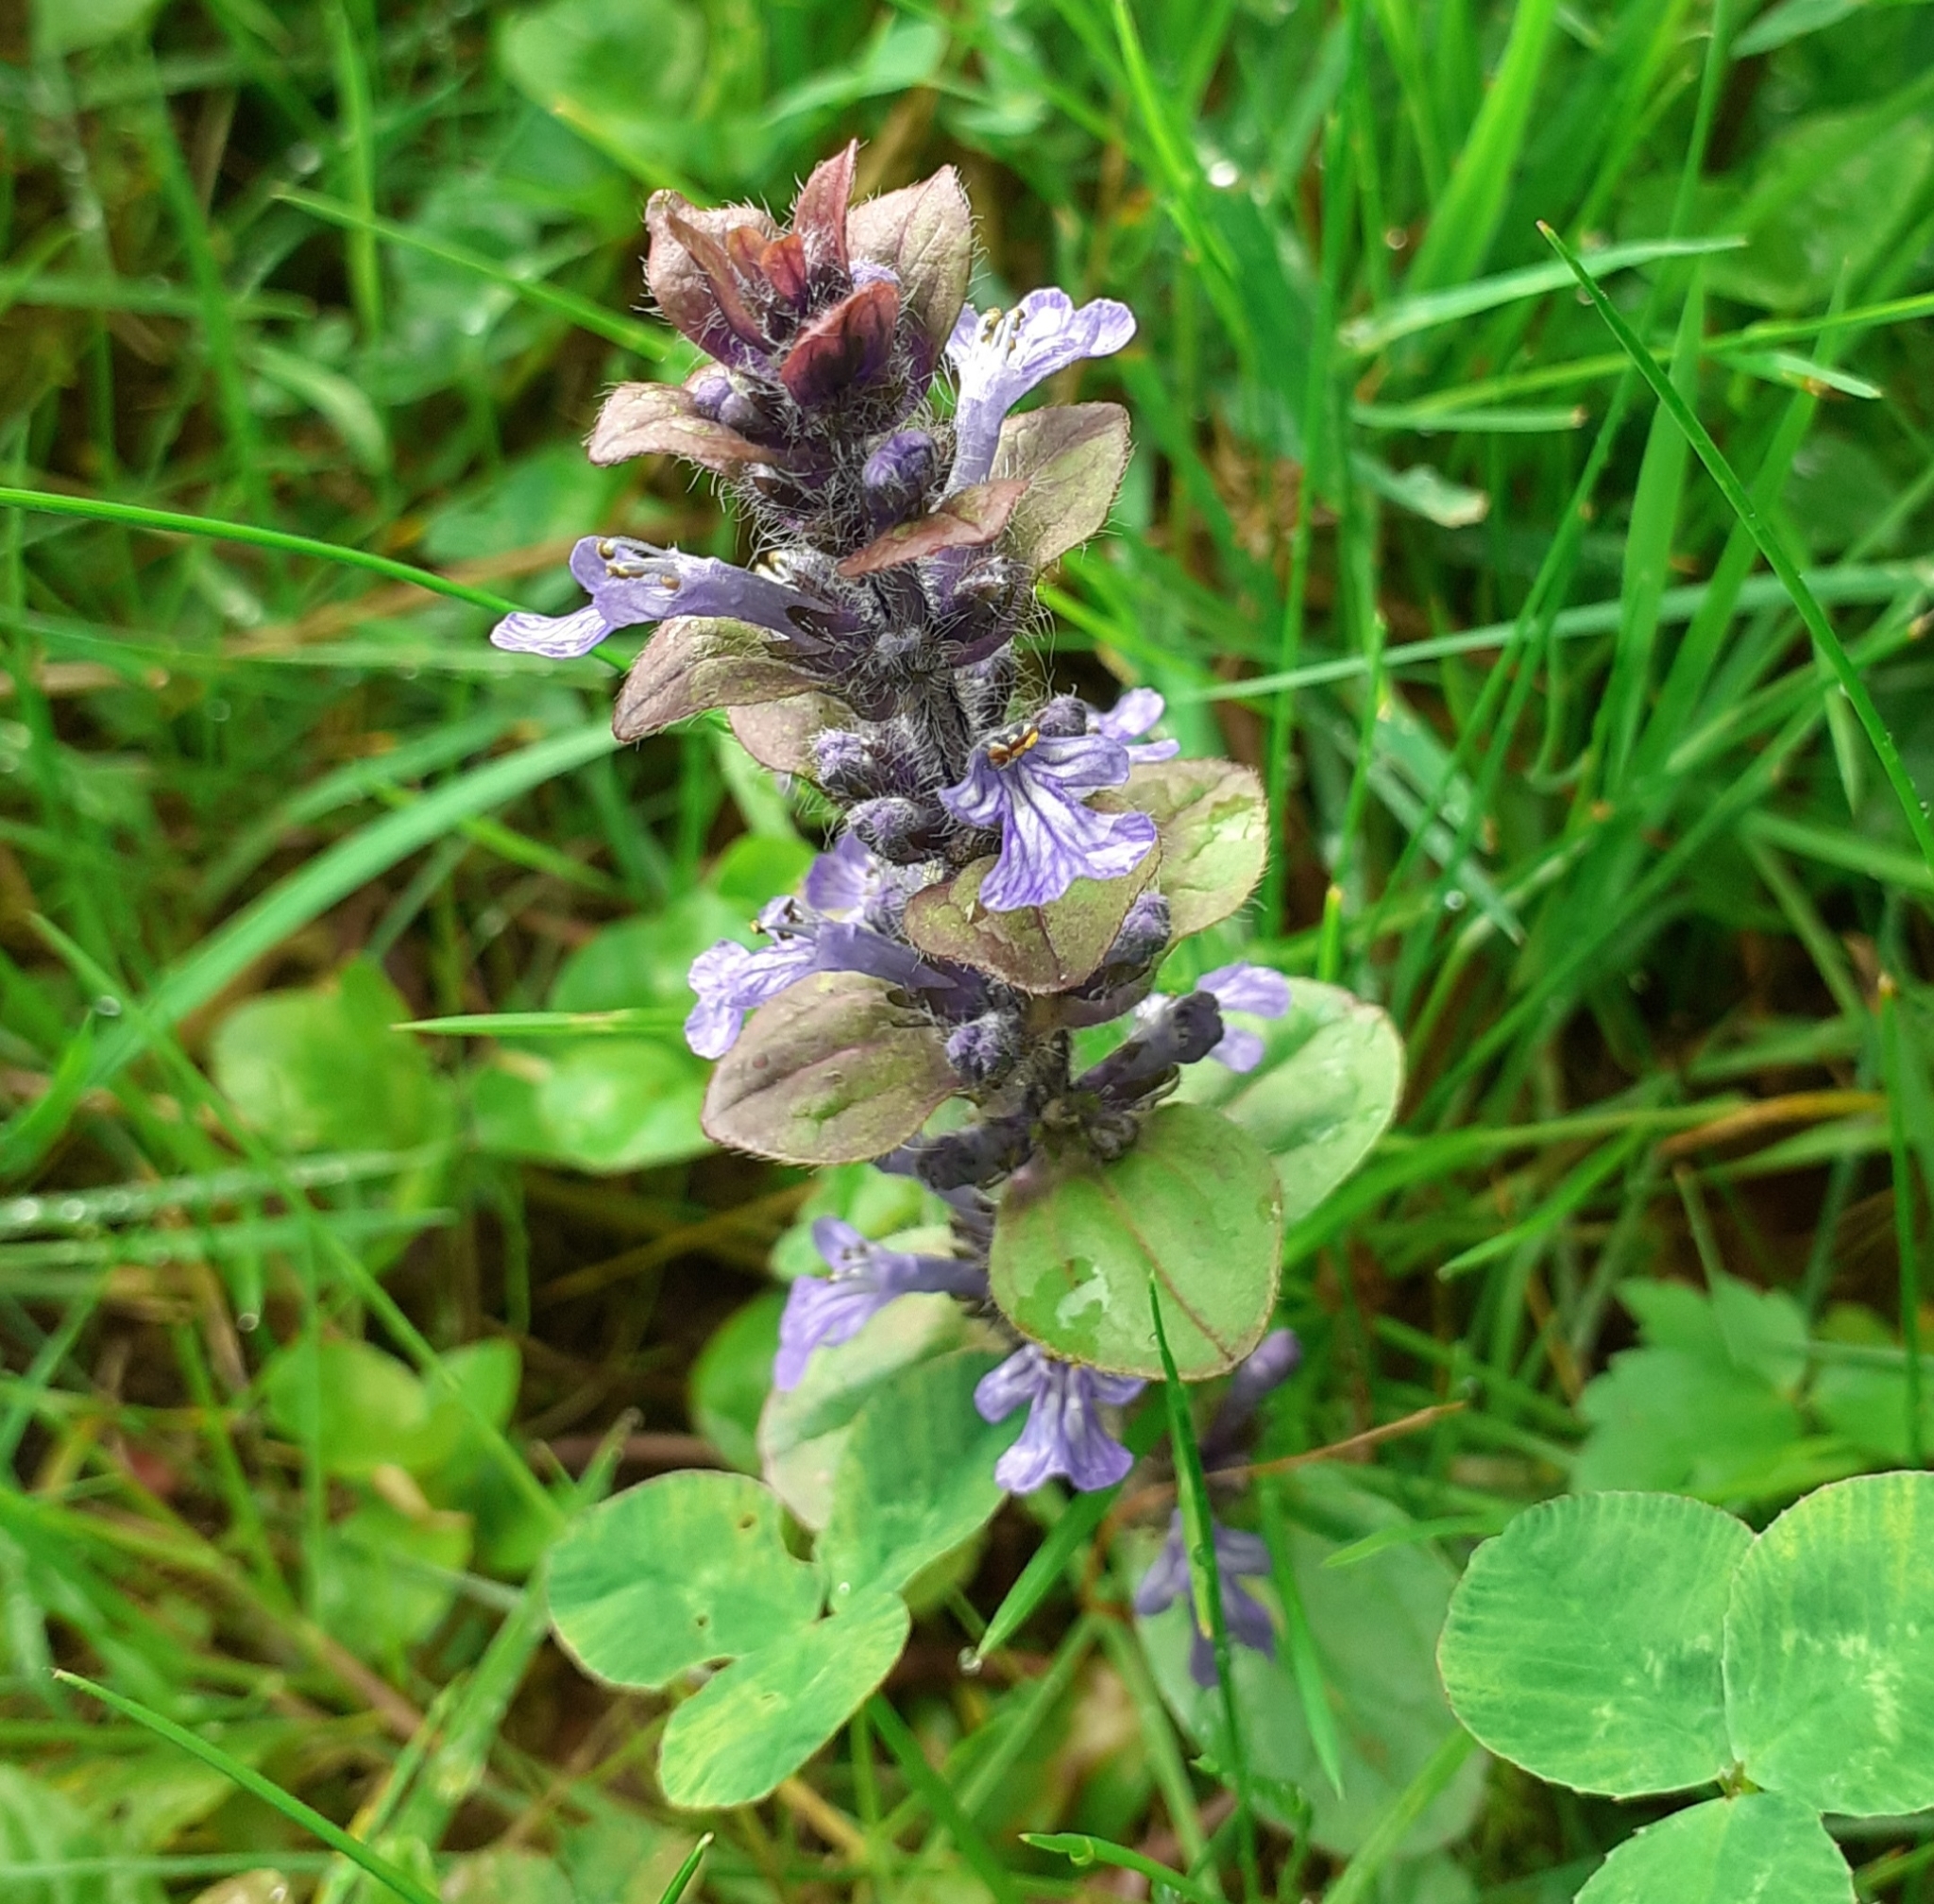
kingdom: Plantae
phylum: Tracheophyta
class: Magnoliopsida
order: Lamiales
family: Lamiaceae
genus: Ajuga
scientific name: Ajuga reptans
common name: Bugle
